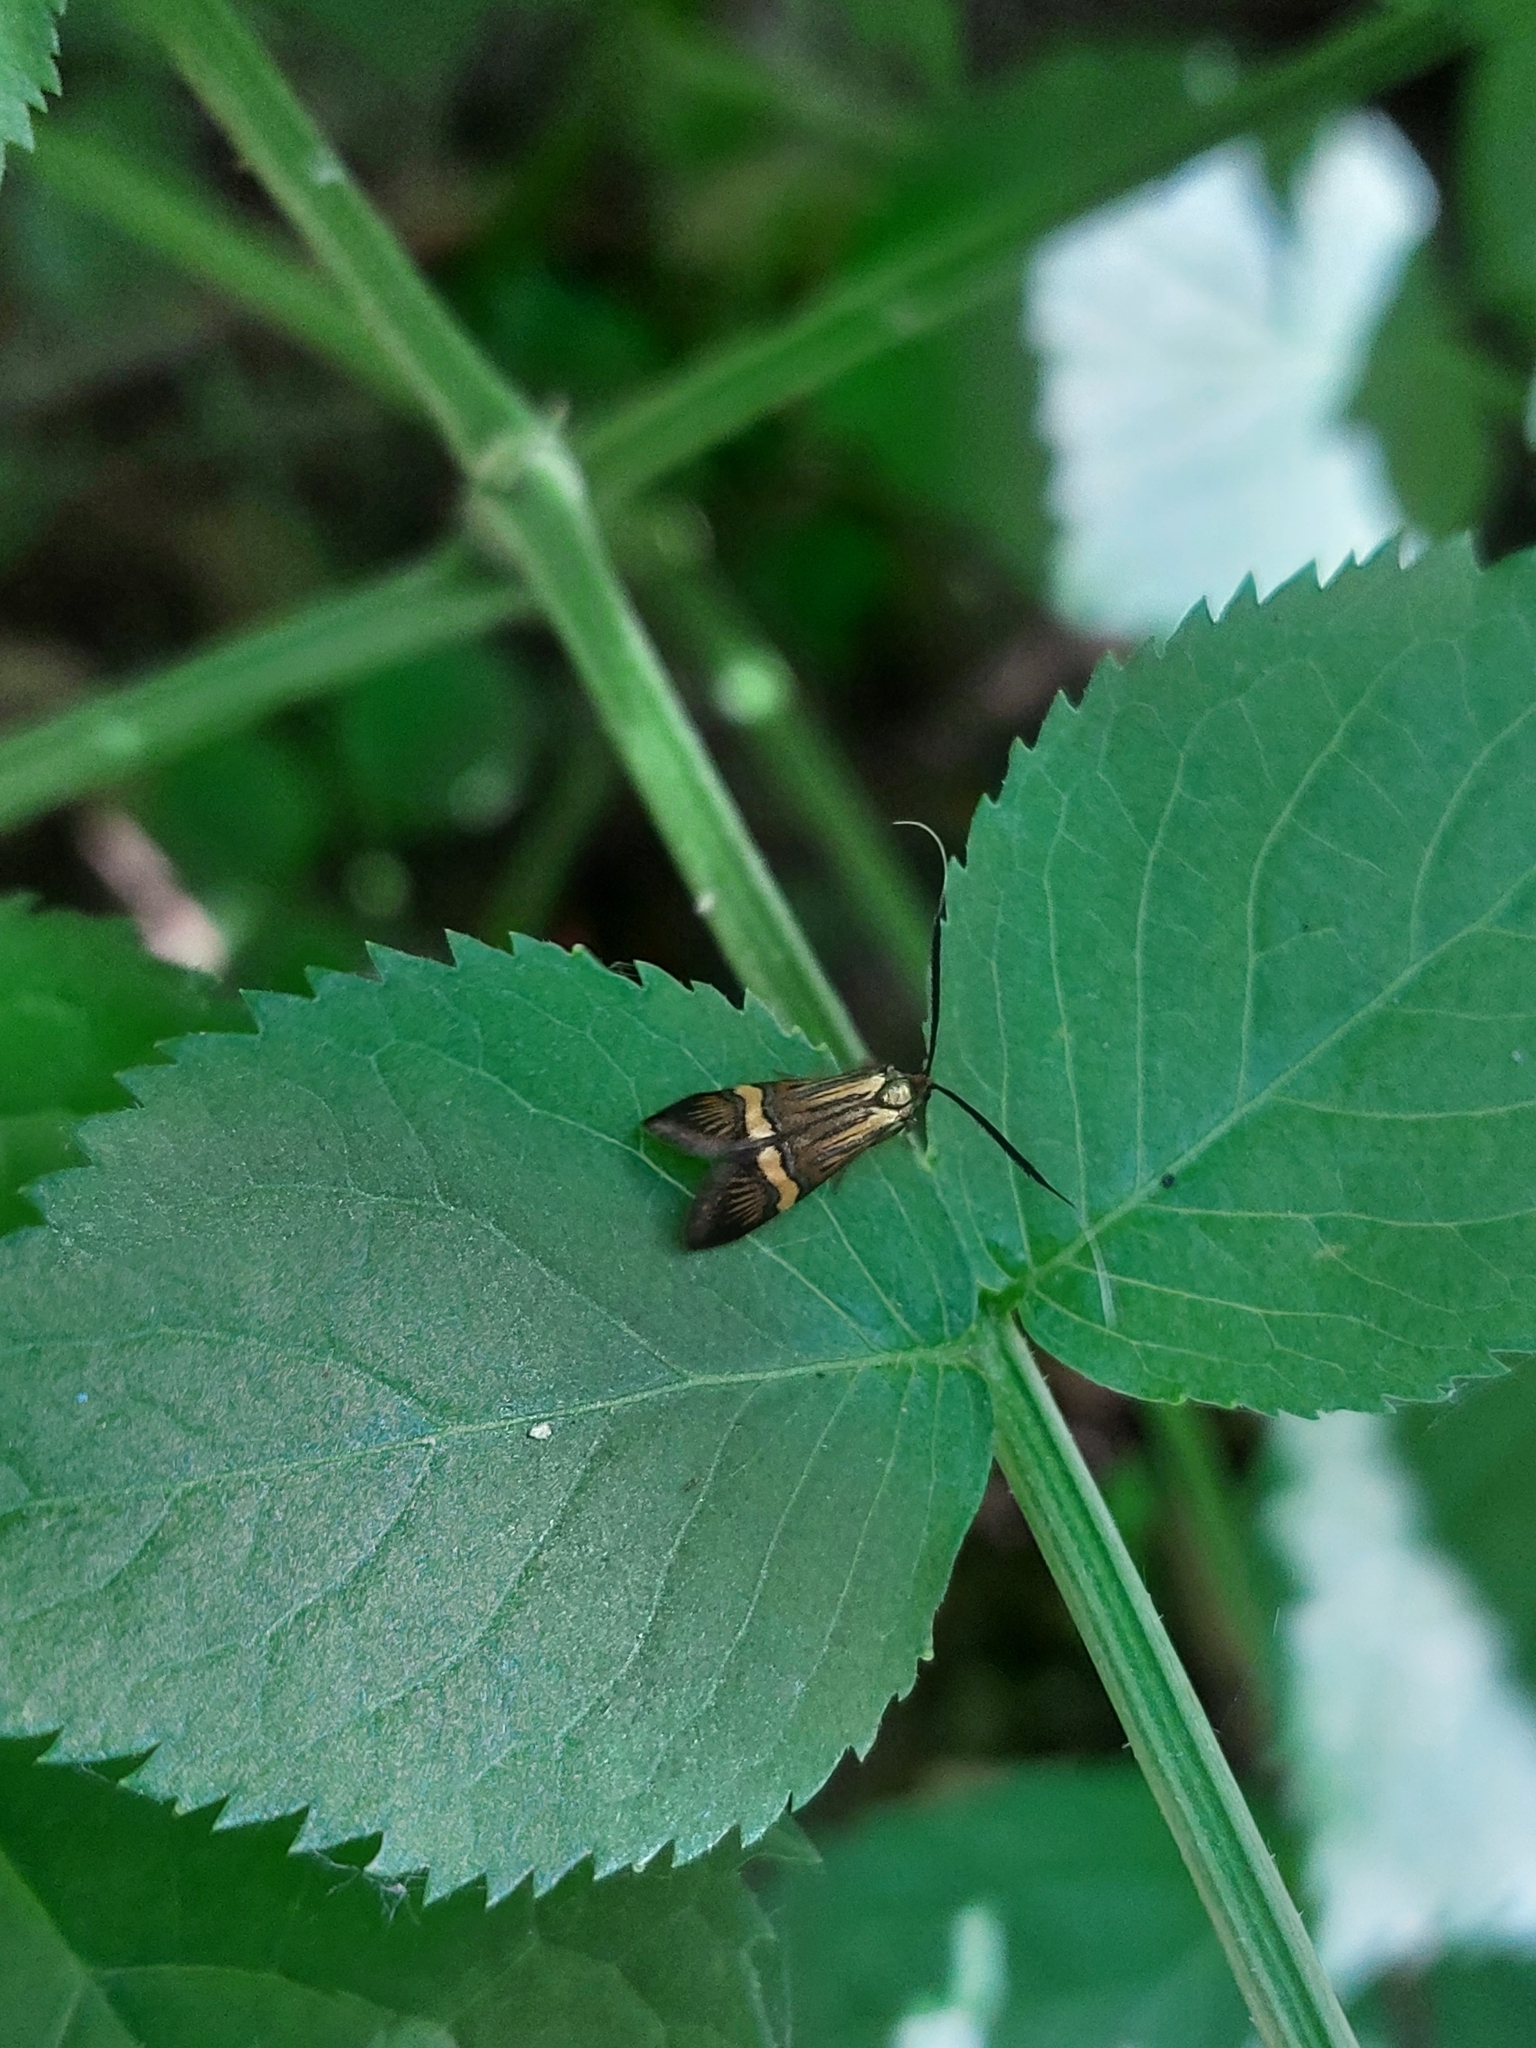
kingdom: Animalia
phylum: Arthropoda
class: Insecta
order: Lepidoptera
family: Adelidae
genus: Nemophora
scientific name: Nemophora degeerella
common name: Yellow-barred long-horn
